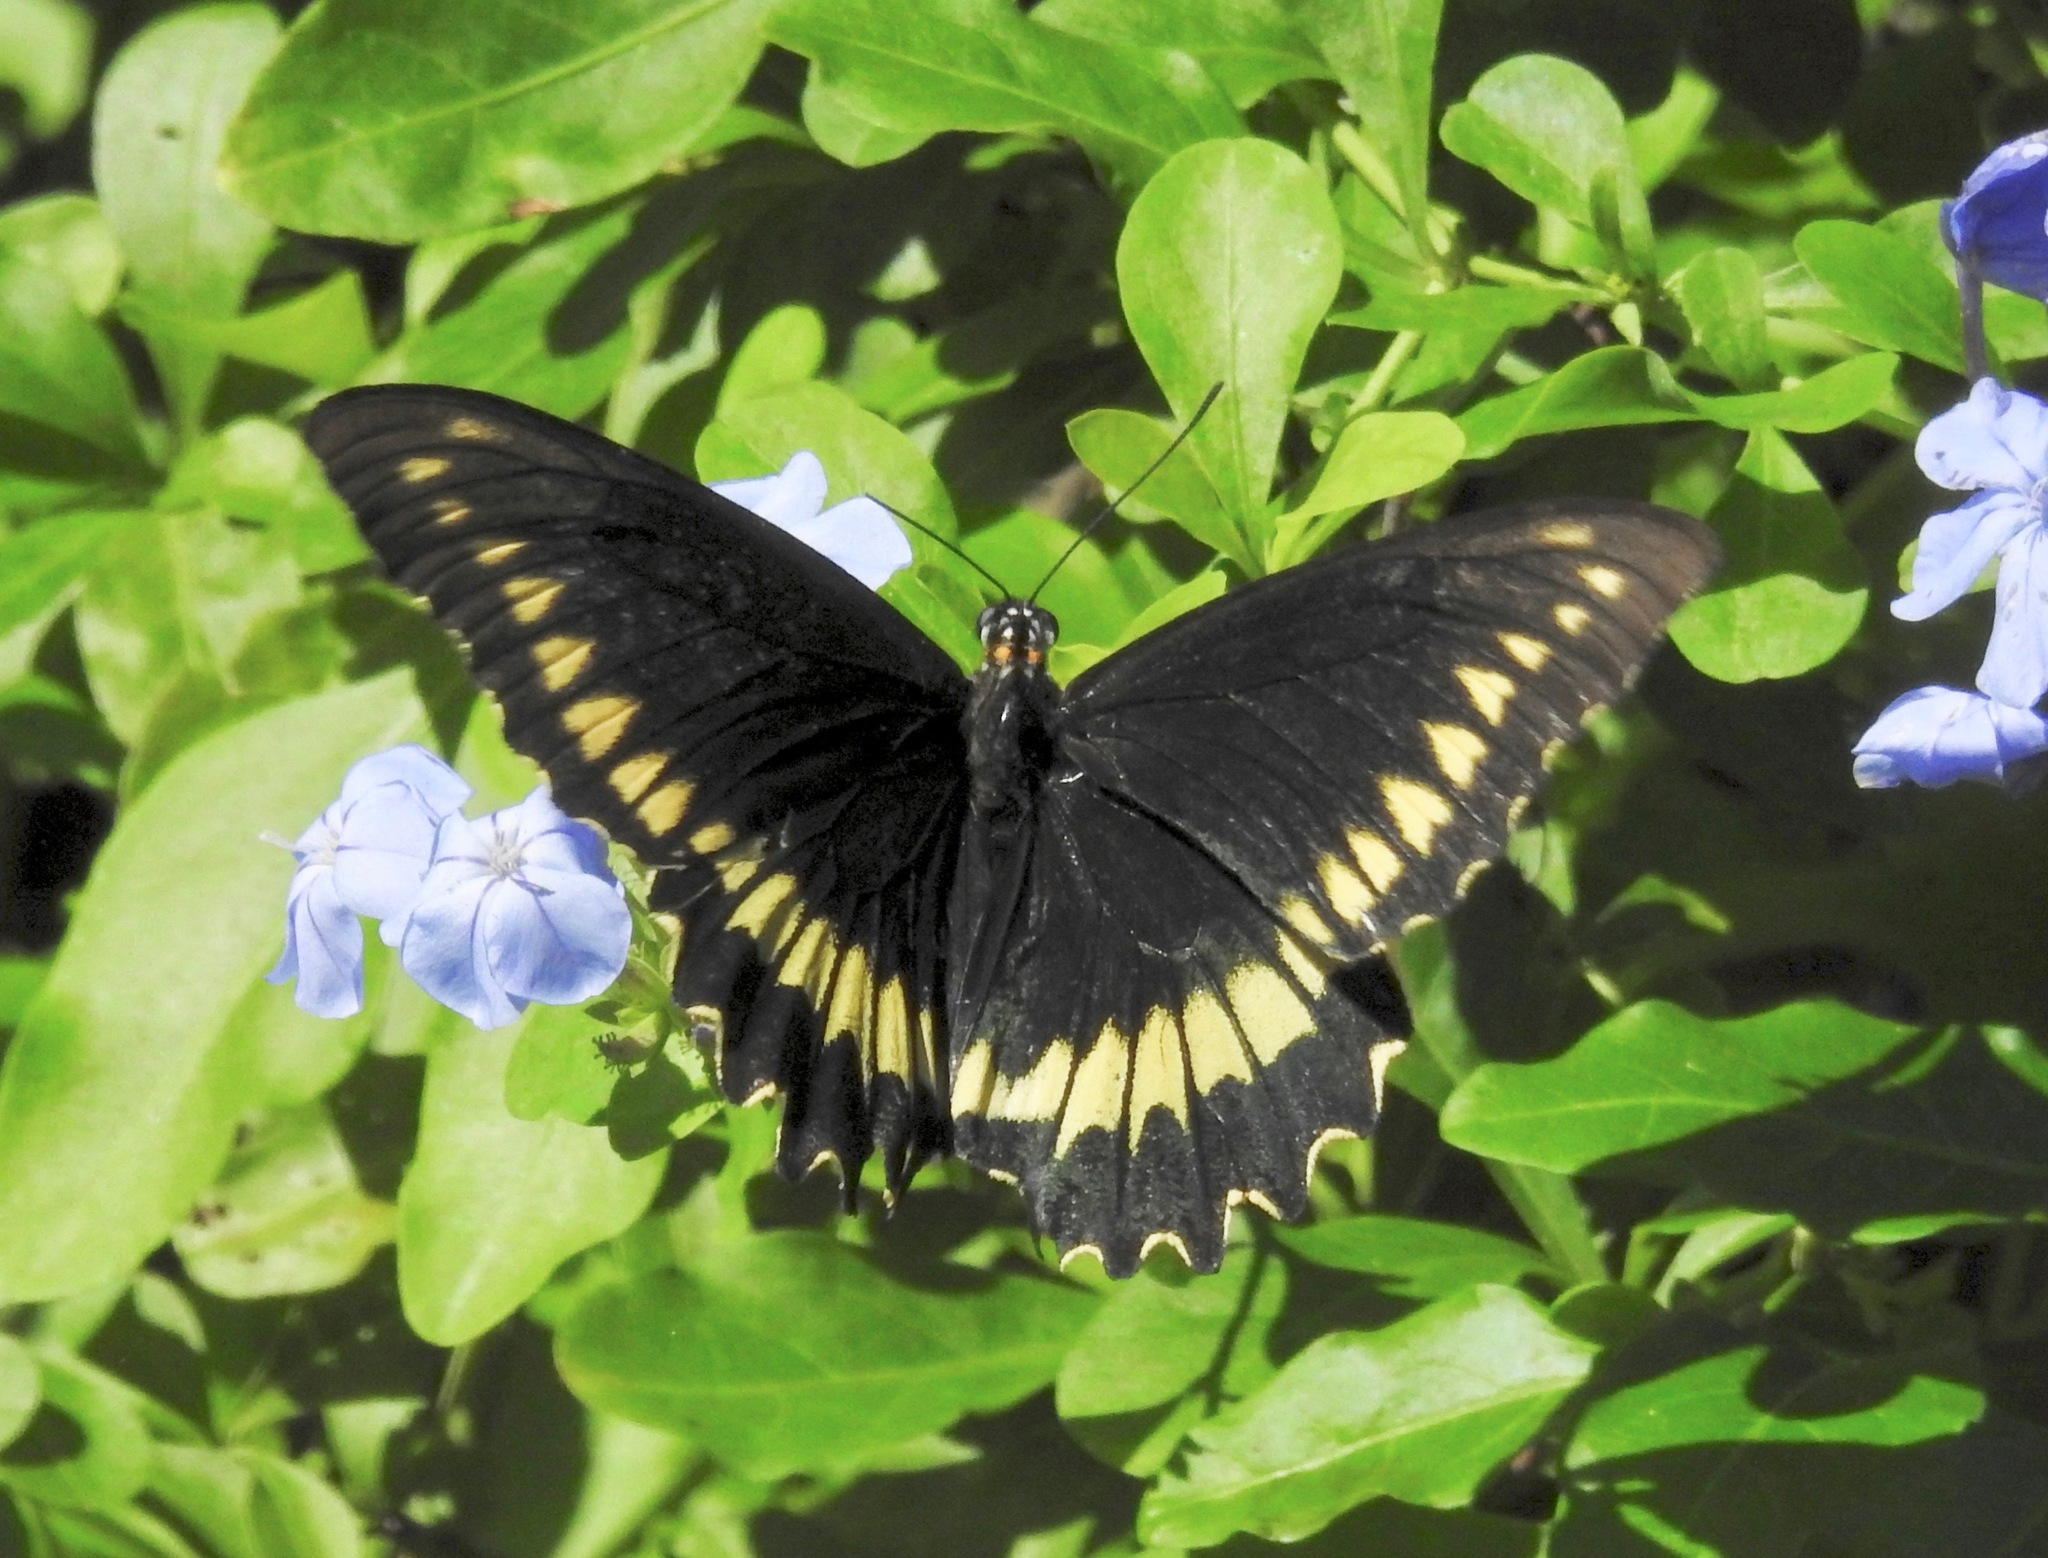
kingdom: Animalia
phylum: Arthropoda
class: Insecta
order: Lepidoptera
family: Papilionidae
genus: Battus
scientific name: Battus polydamas
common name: Polydamas swallowtail
